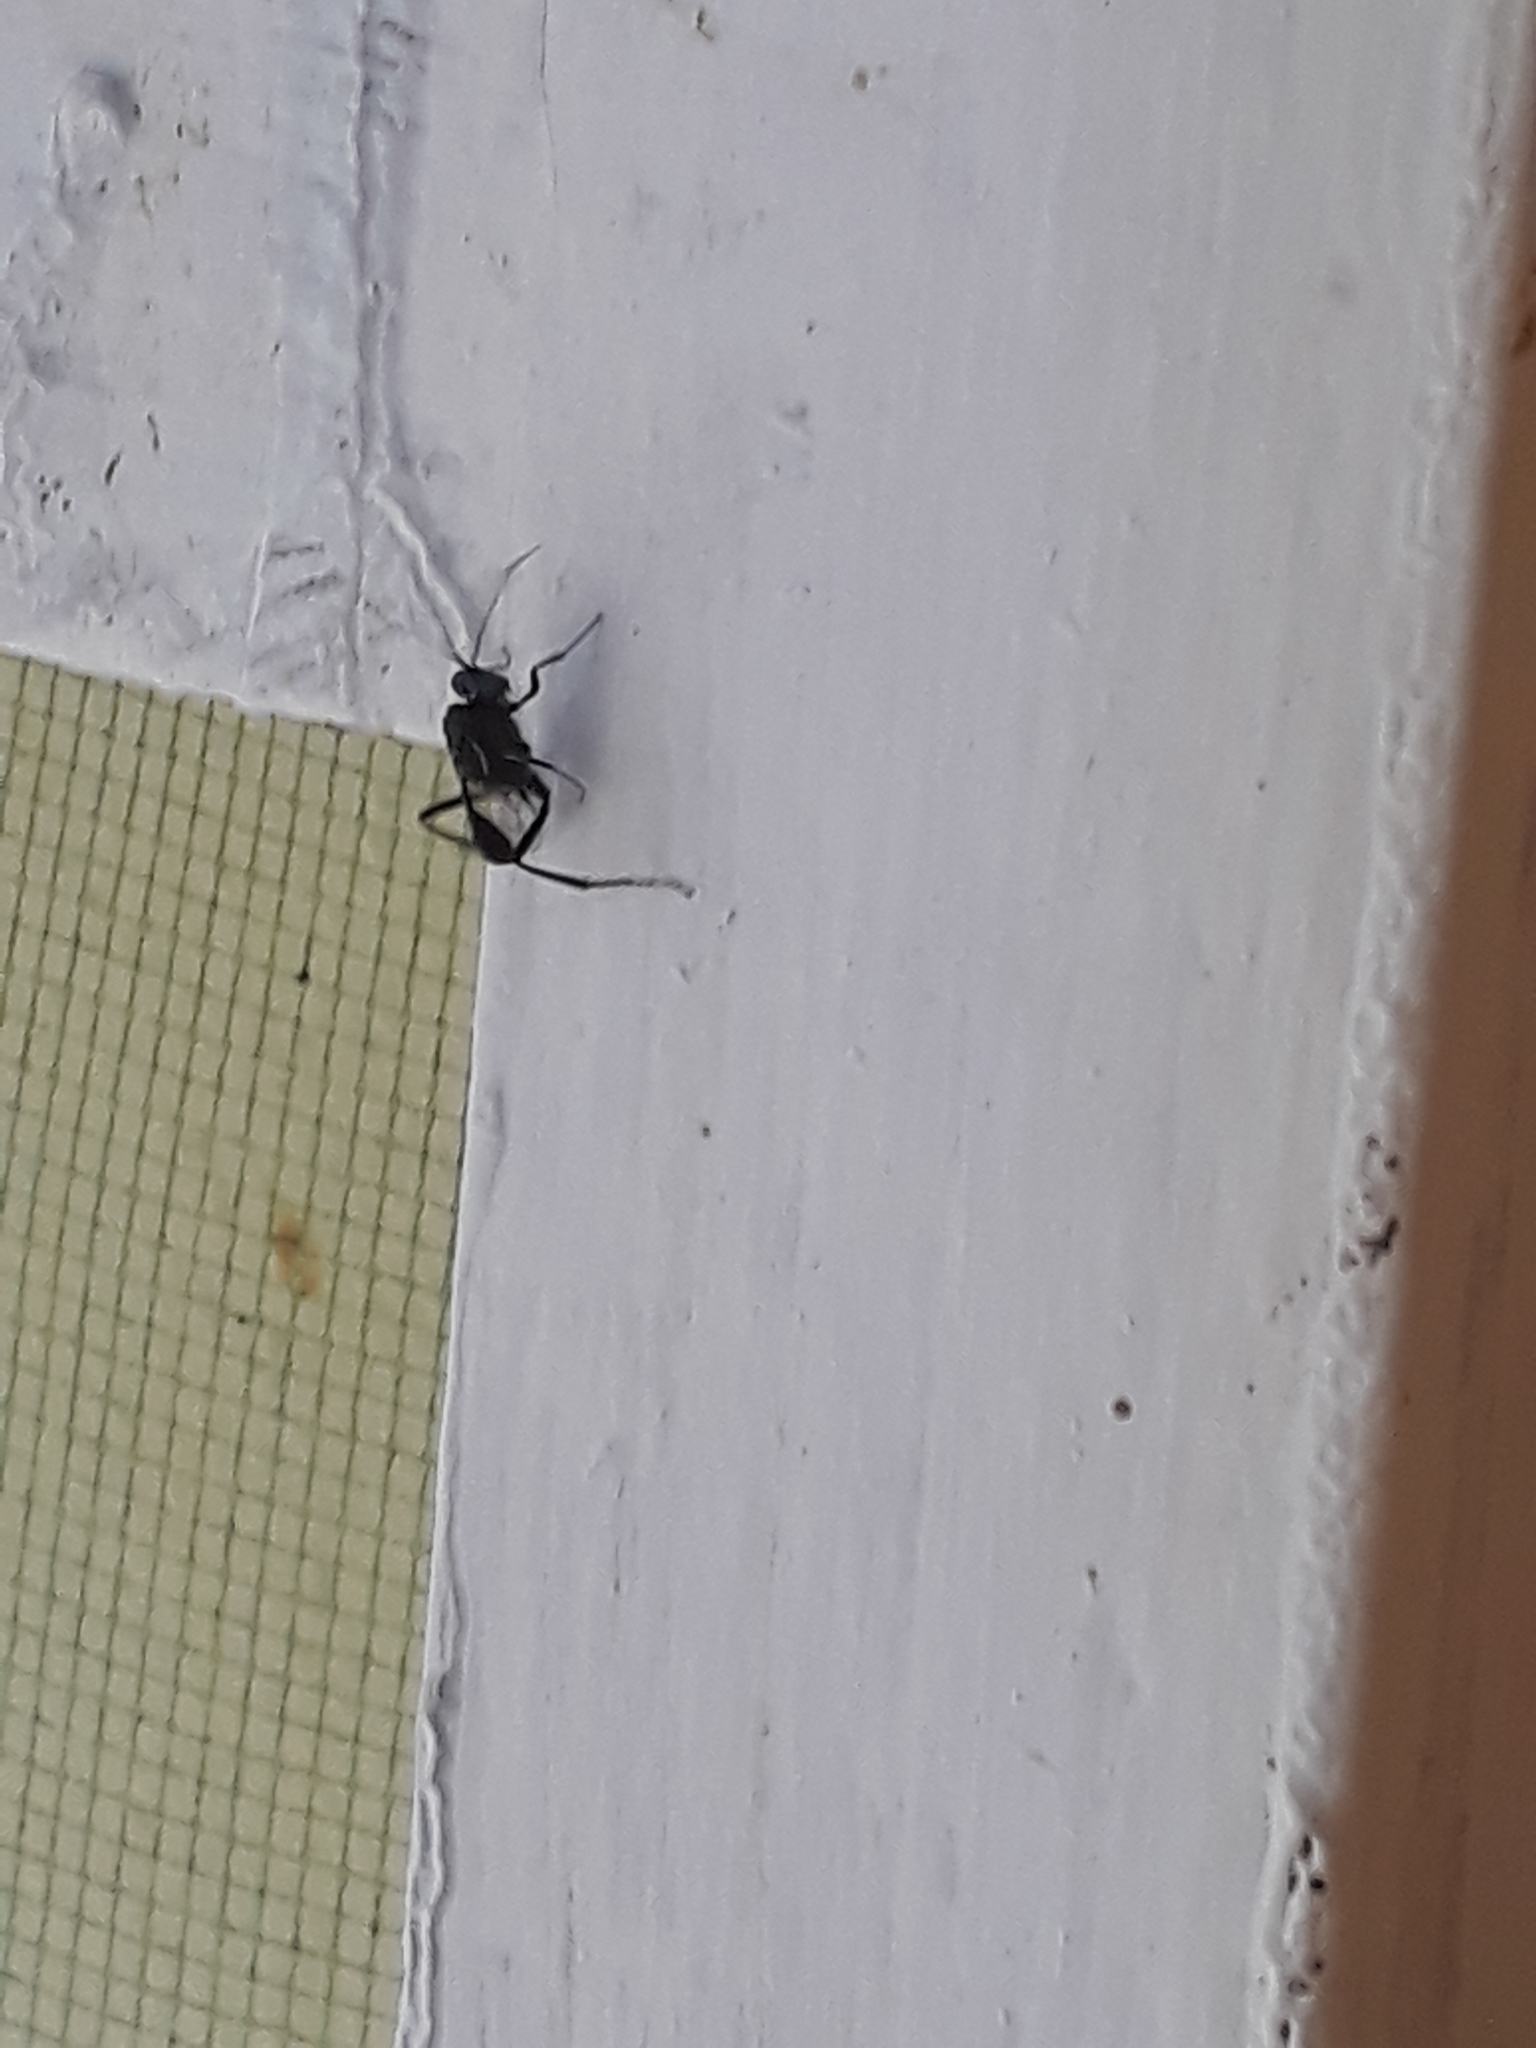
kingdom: Animalia
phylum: Arthropoda
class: Insecta
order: Hymenoptera
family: Evaniidae
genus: Evania
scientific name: Evania appendigaster
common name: Ensign wasp
